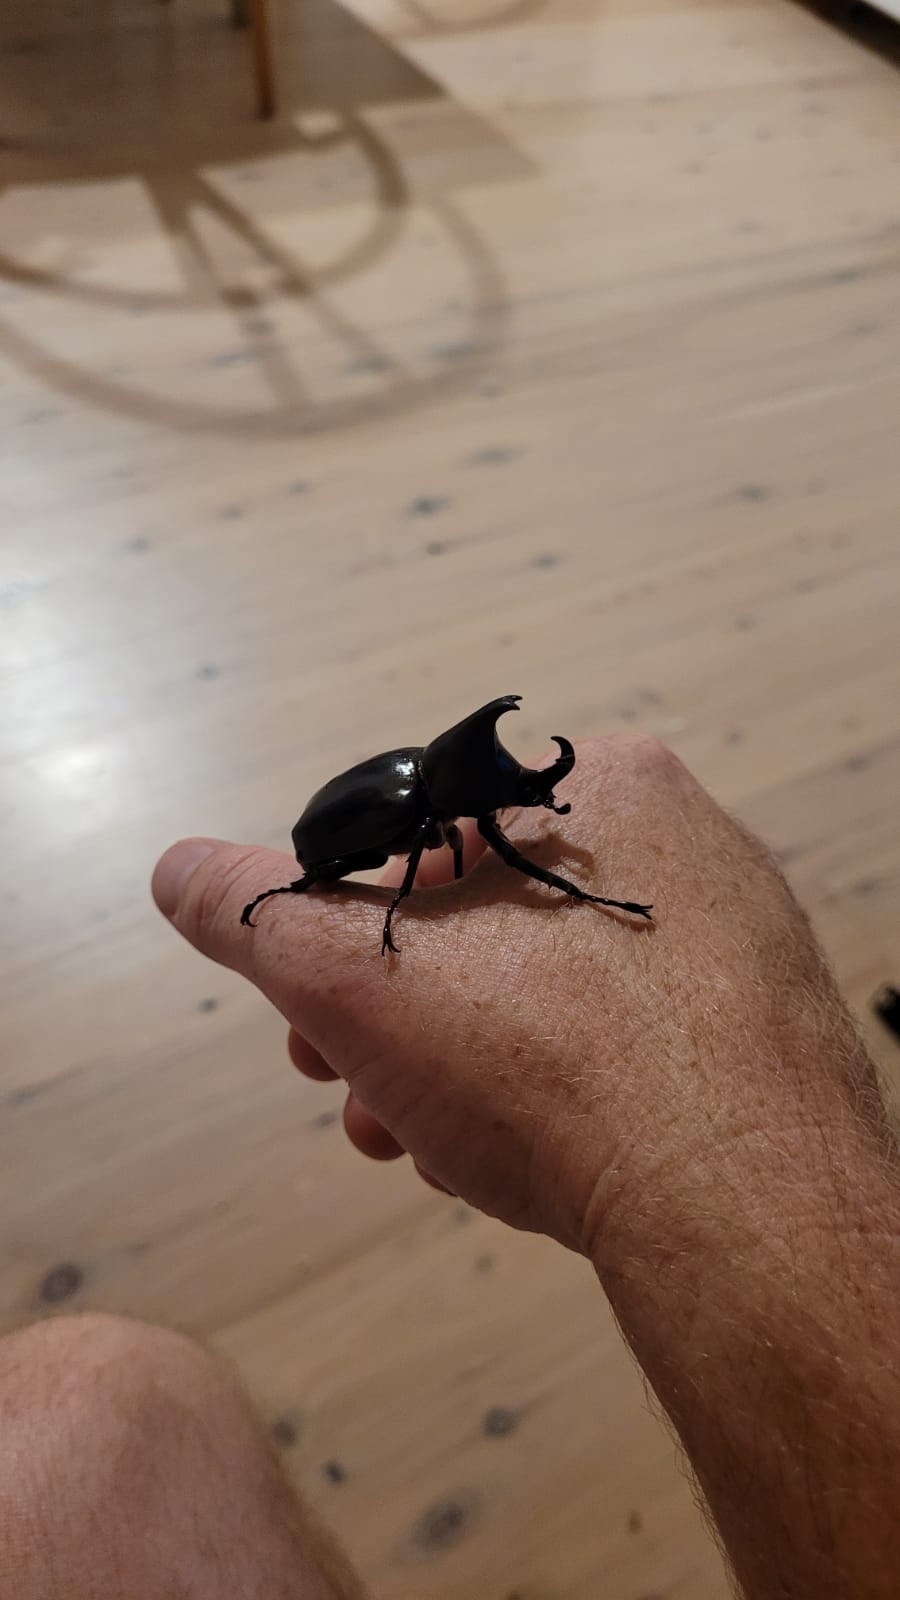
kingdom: Animalia
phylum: Arthropoda
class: Insecta
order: Coleoptera
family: Scarabaeidae
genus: Xylotrupes
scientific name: Xylotrupes australicus
